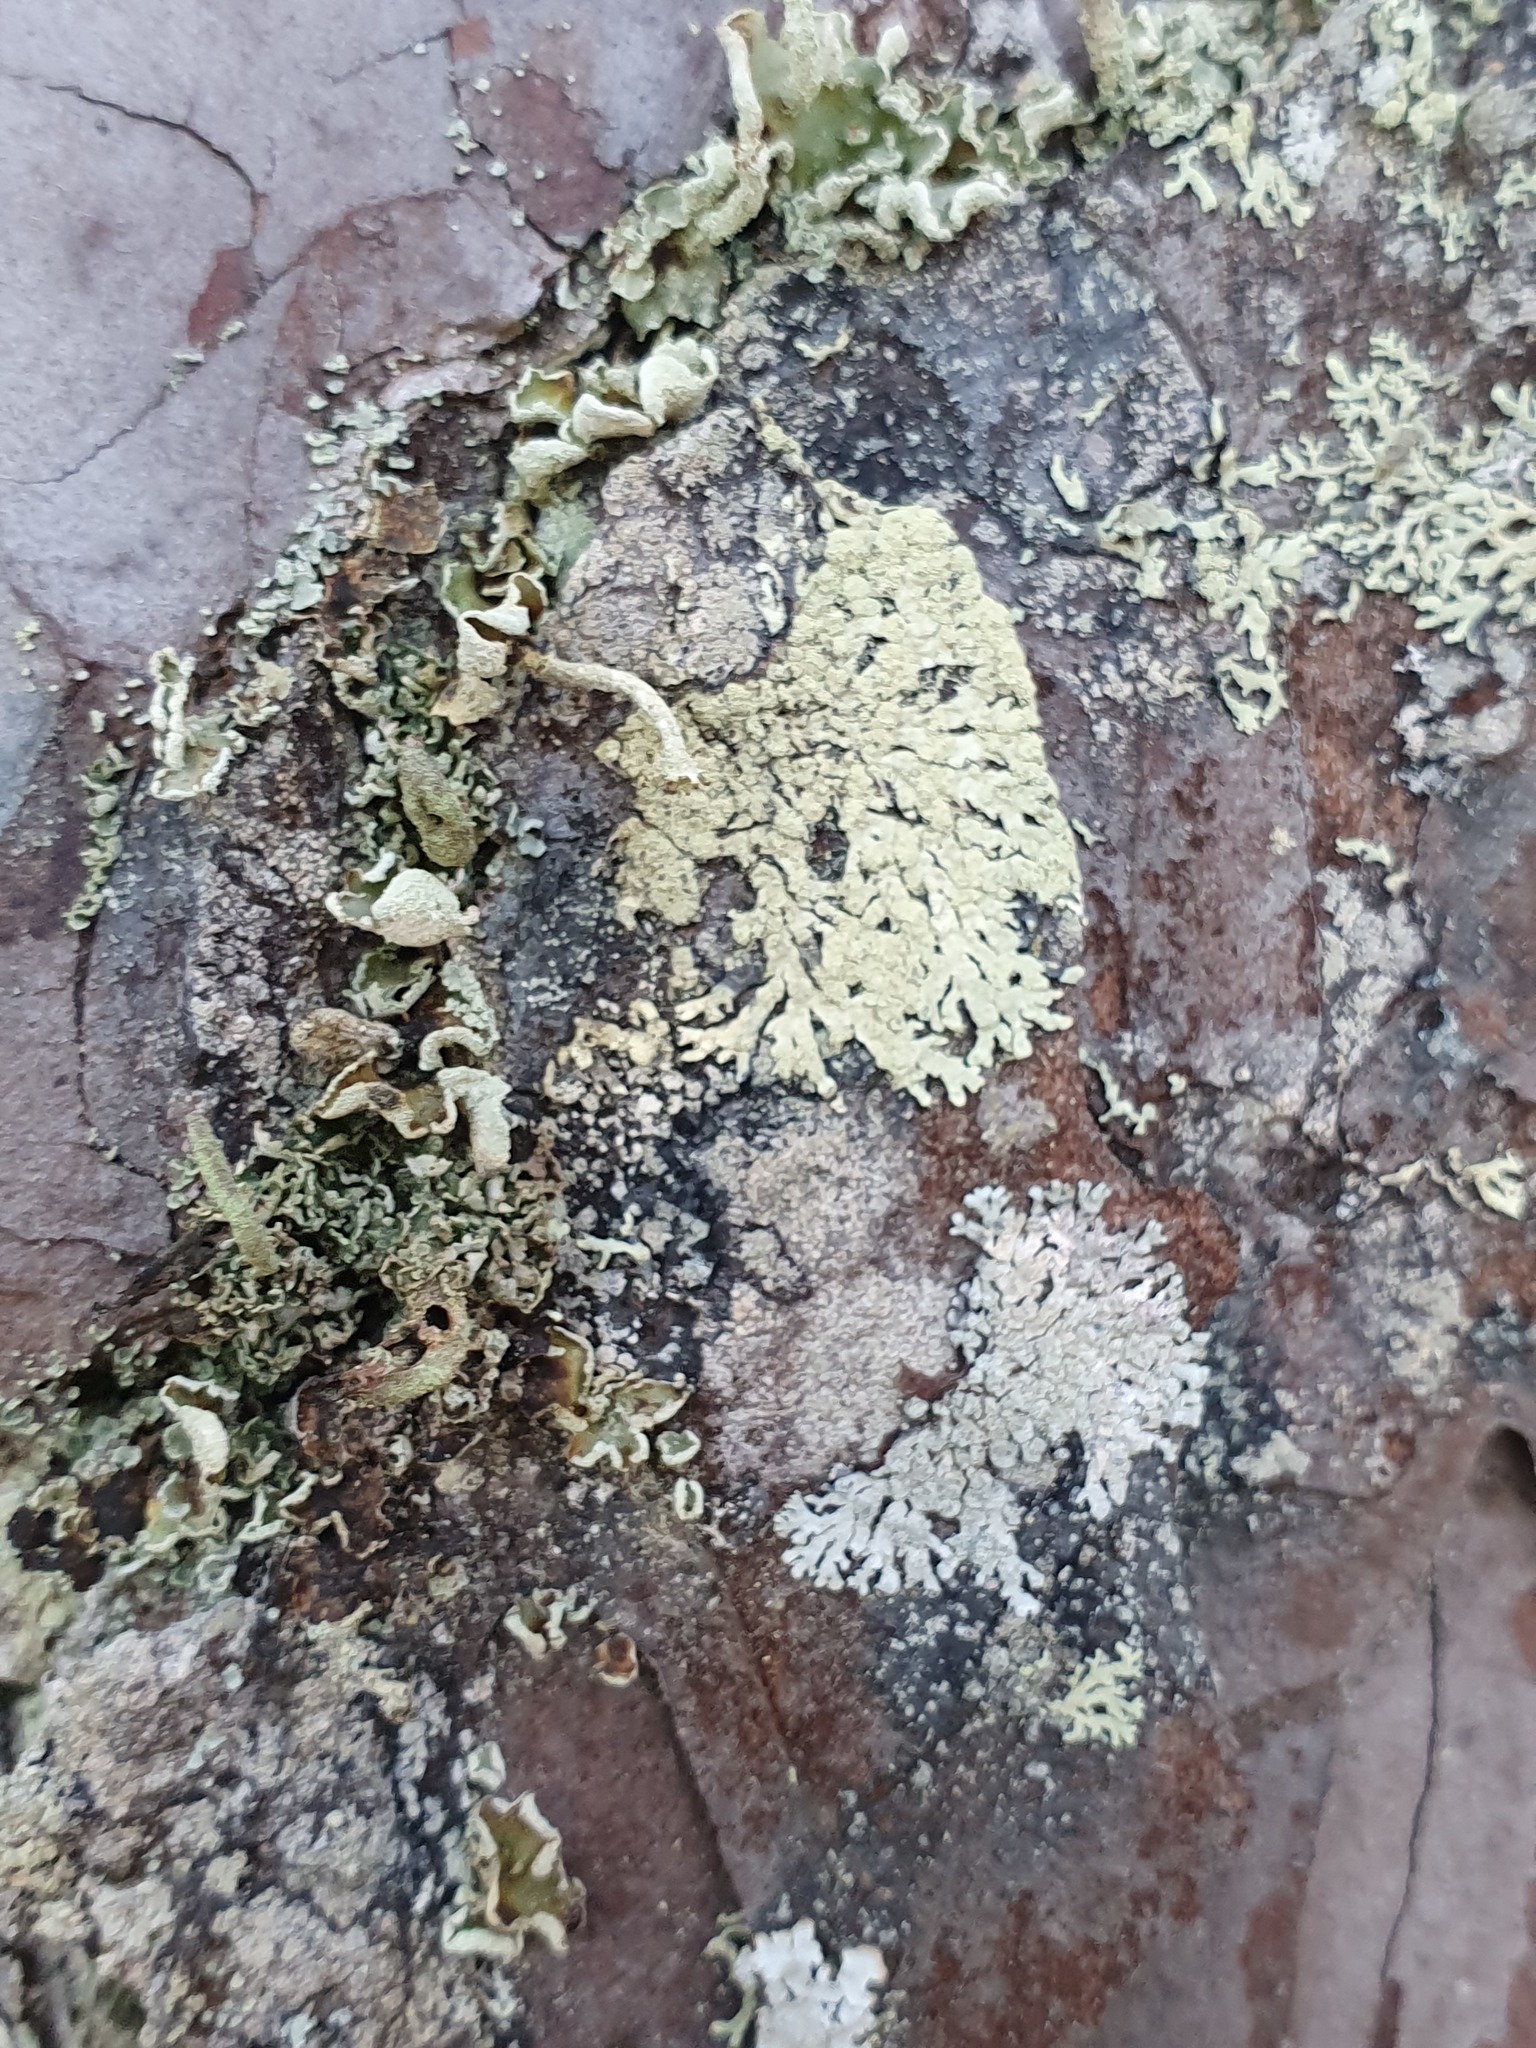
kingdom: Fungi
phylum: Ascomycota
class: Lecanoromycetes
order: Lecanorales
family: Parmeliaceae
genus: Parmeliopsis
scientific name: Parmeliopsis ambigua
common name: Green starburst lichen
